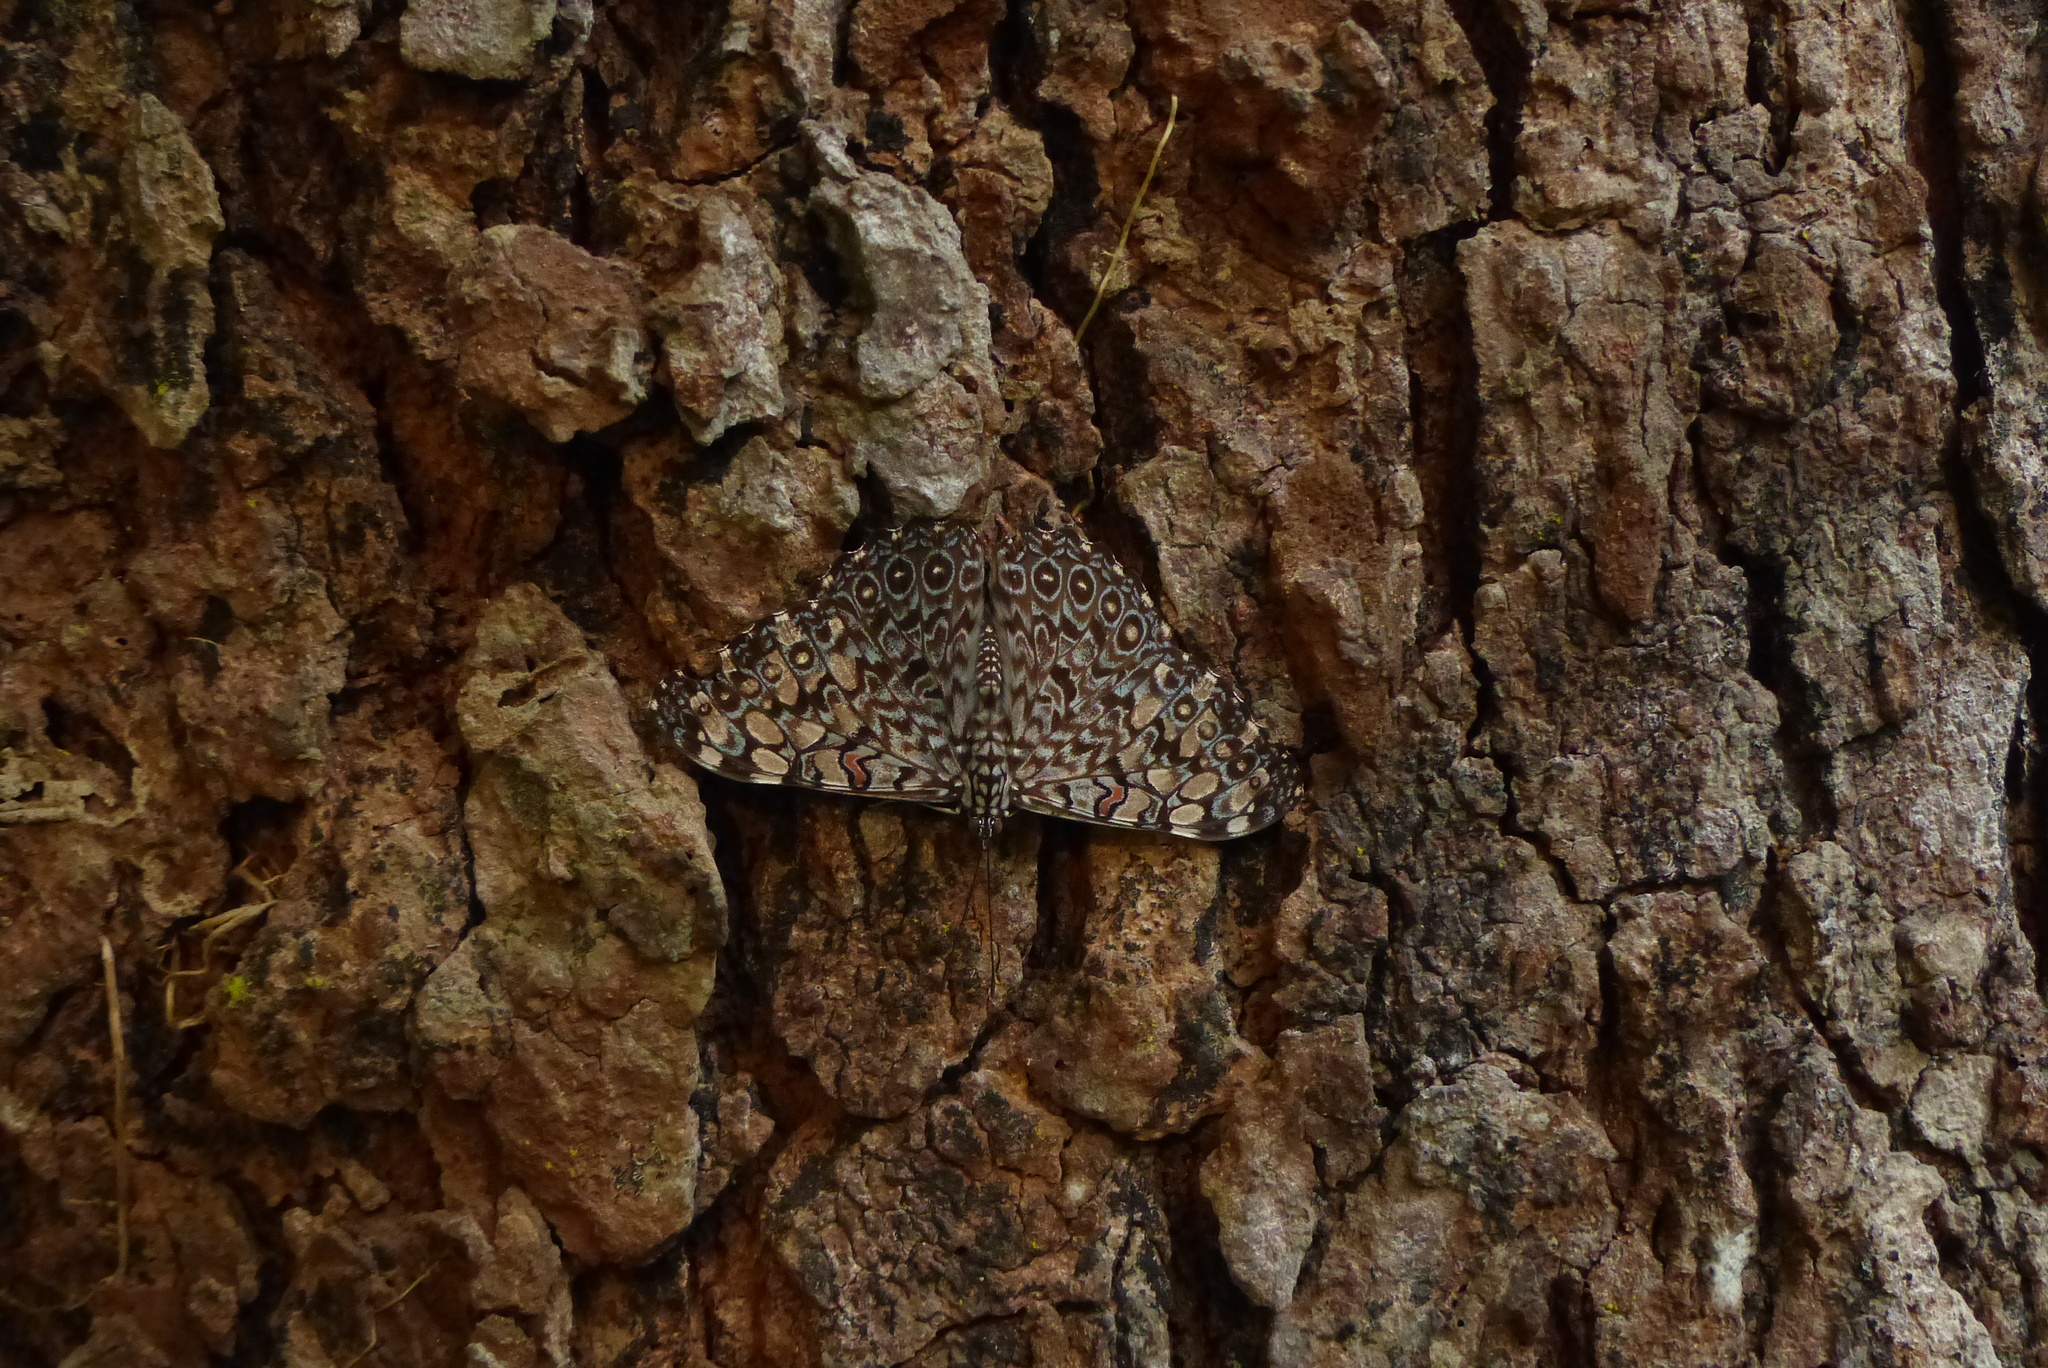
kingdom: Animalia
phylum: Arthropoda
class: Insecta
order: Lepidoptera
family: Nymphalidae
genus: Hamadryas
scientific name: Hamadryas feronia
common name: Variable cracker
